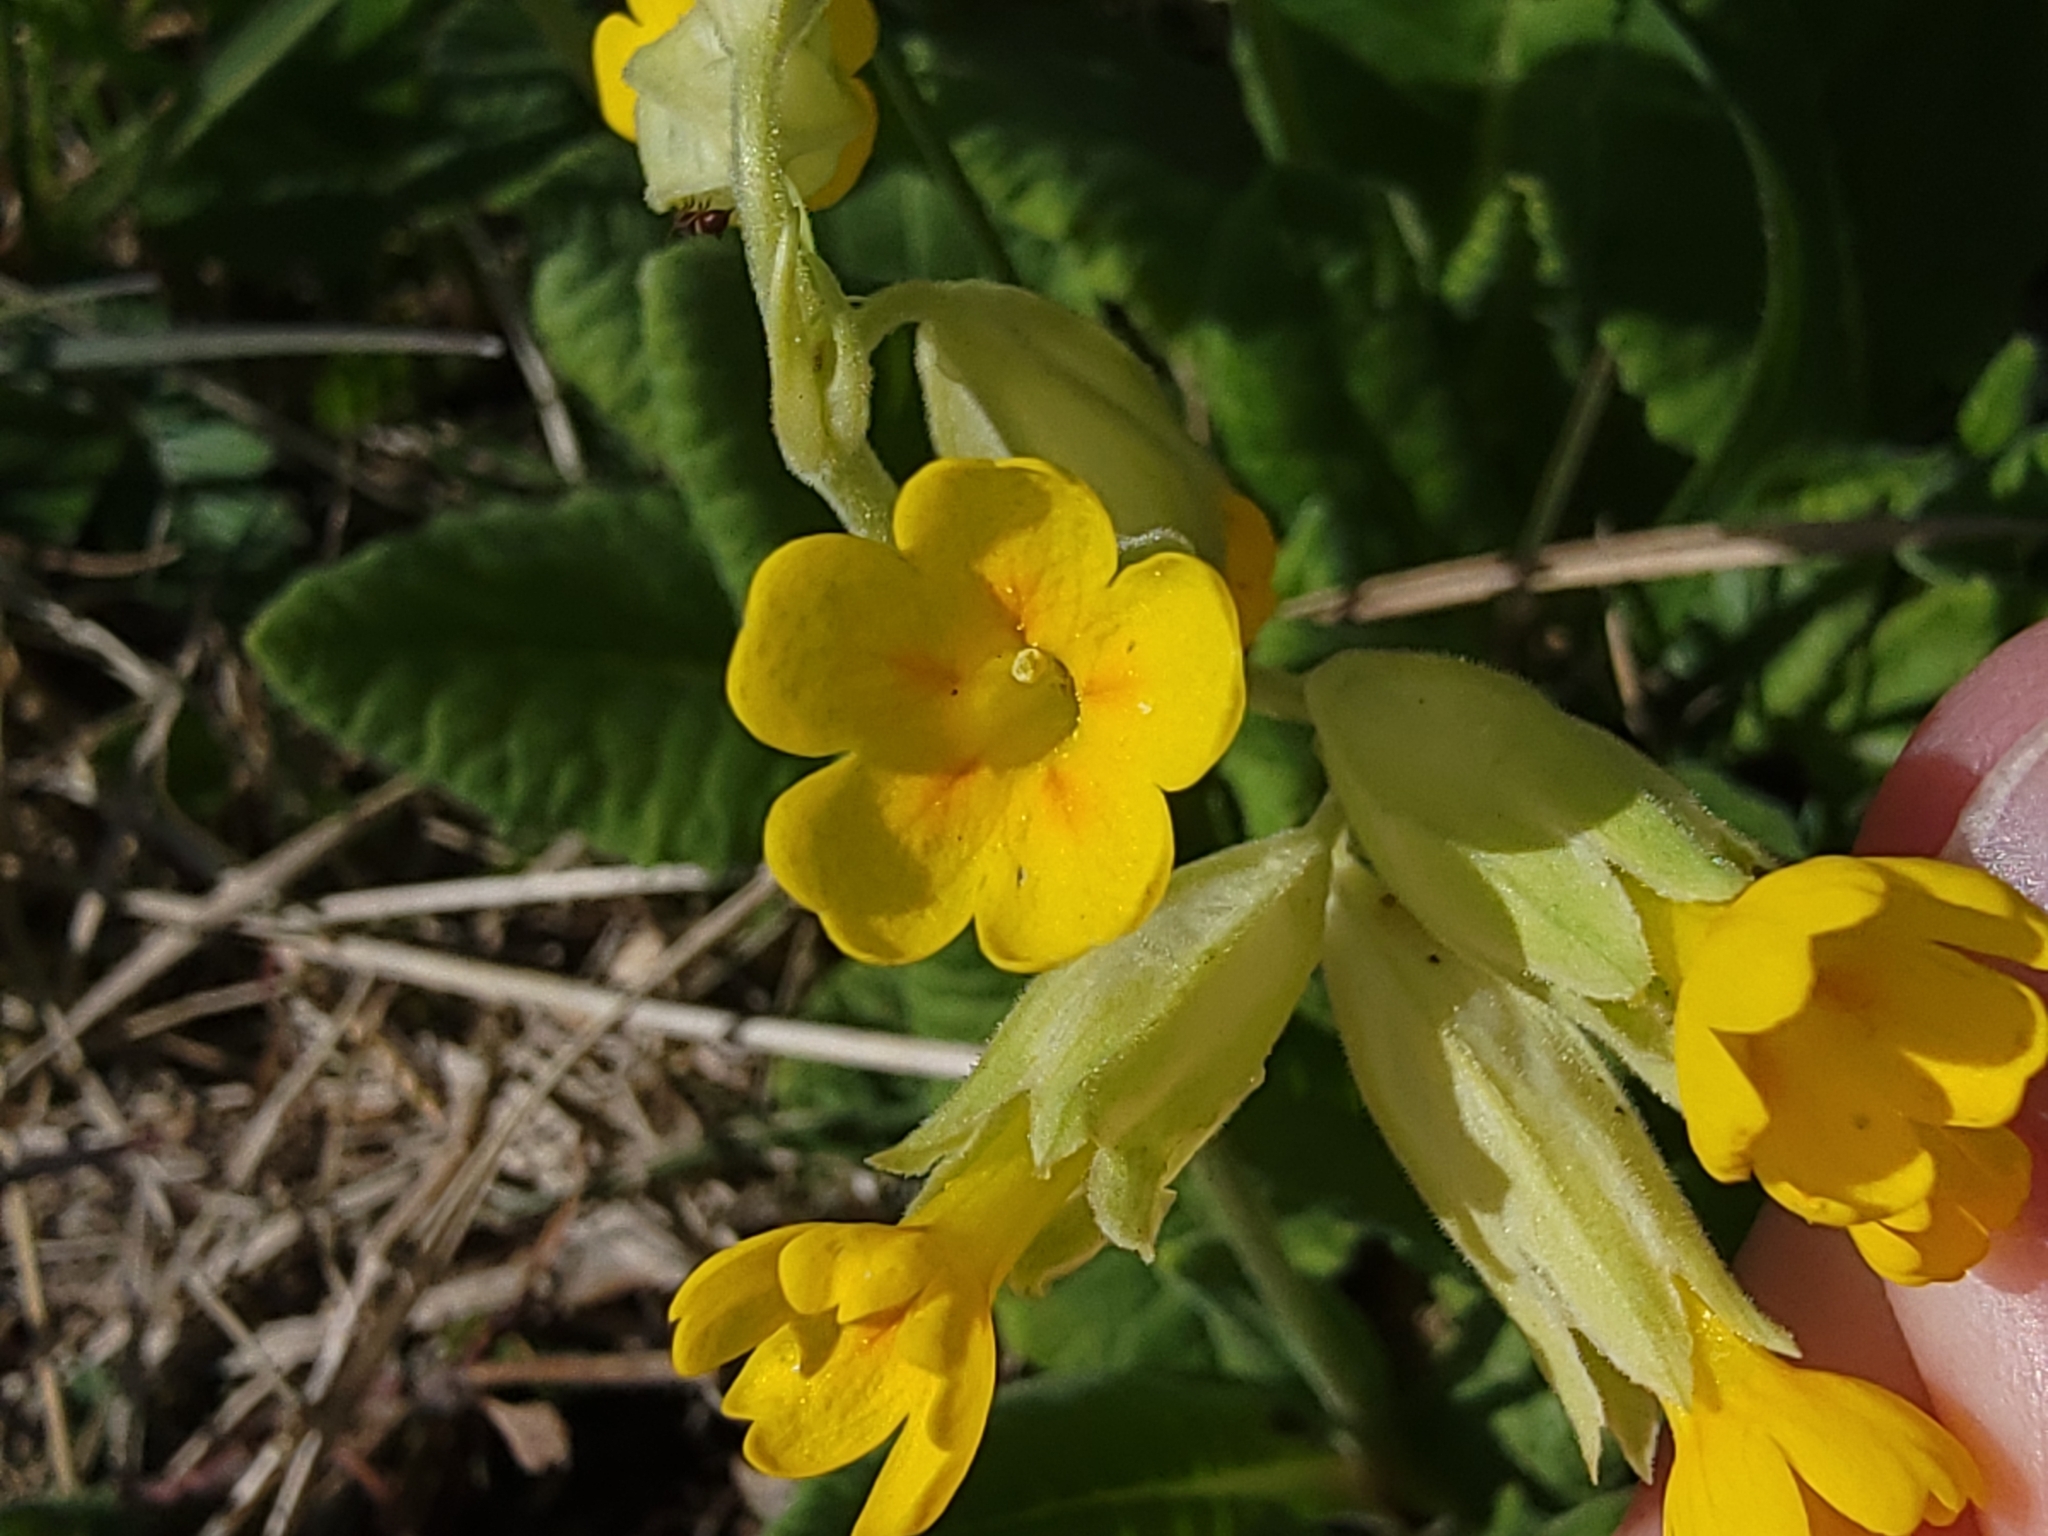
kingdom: Plantae
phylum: Tracheophyta
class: Magnoliopsida
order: Ericales
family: Primulaceae
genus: Primula
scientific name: Primula veris
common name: Cowslip
